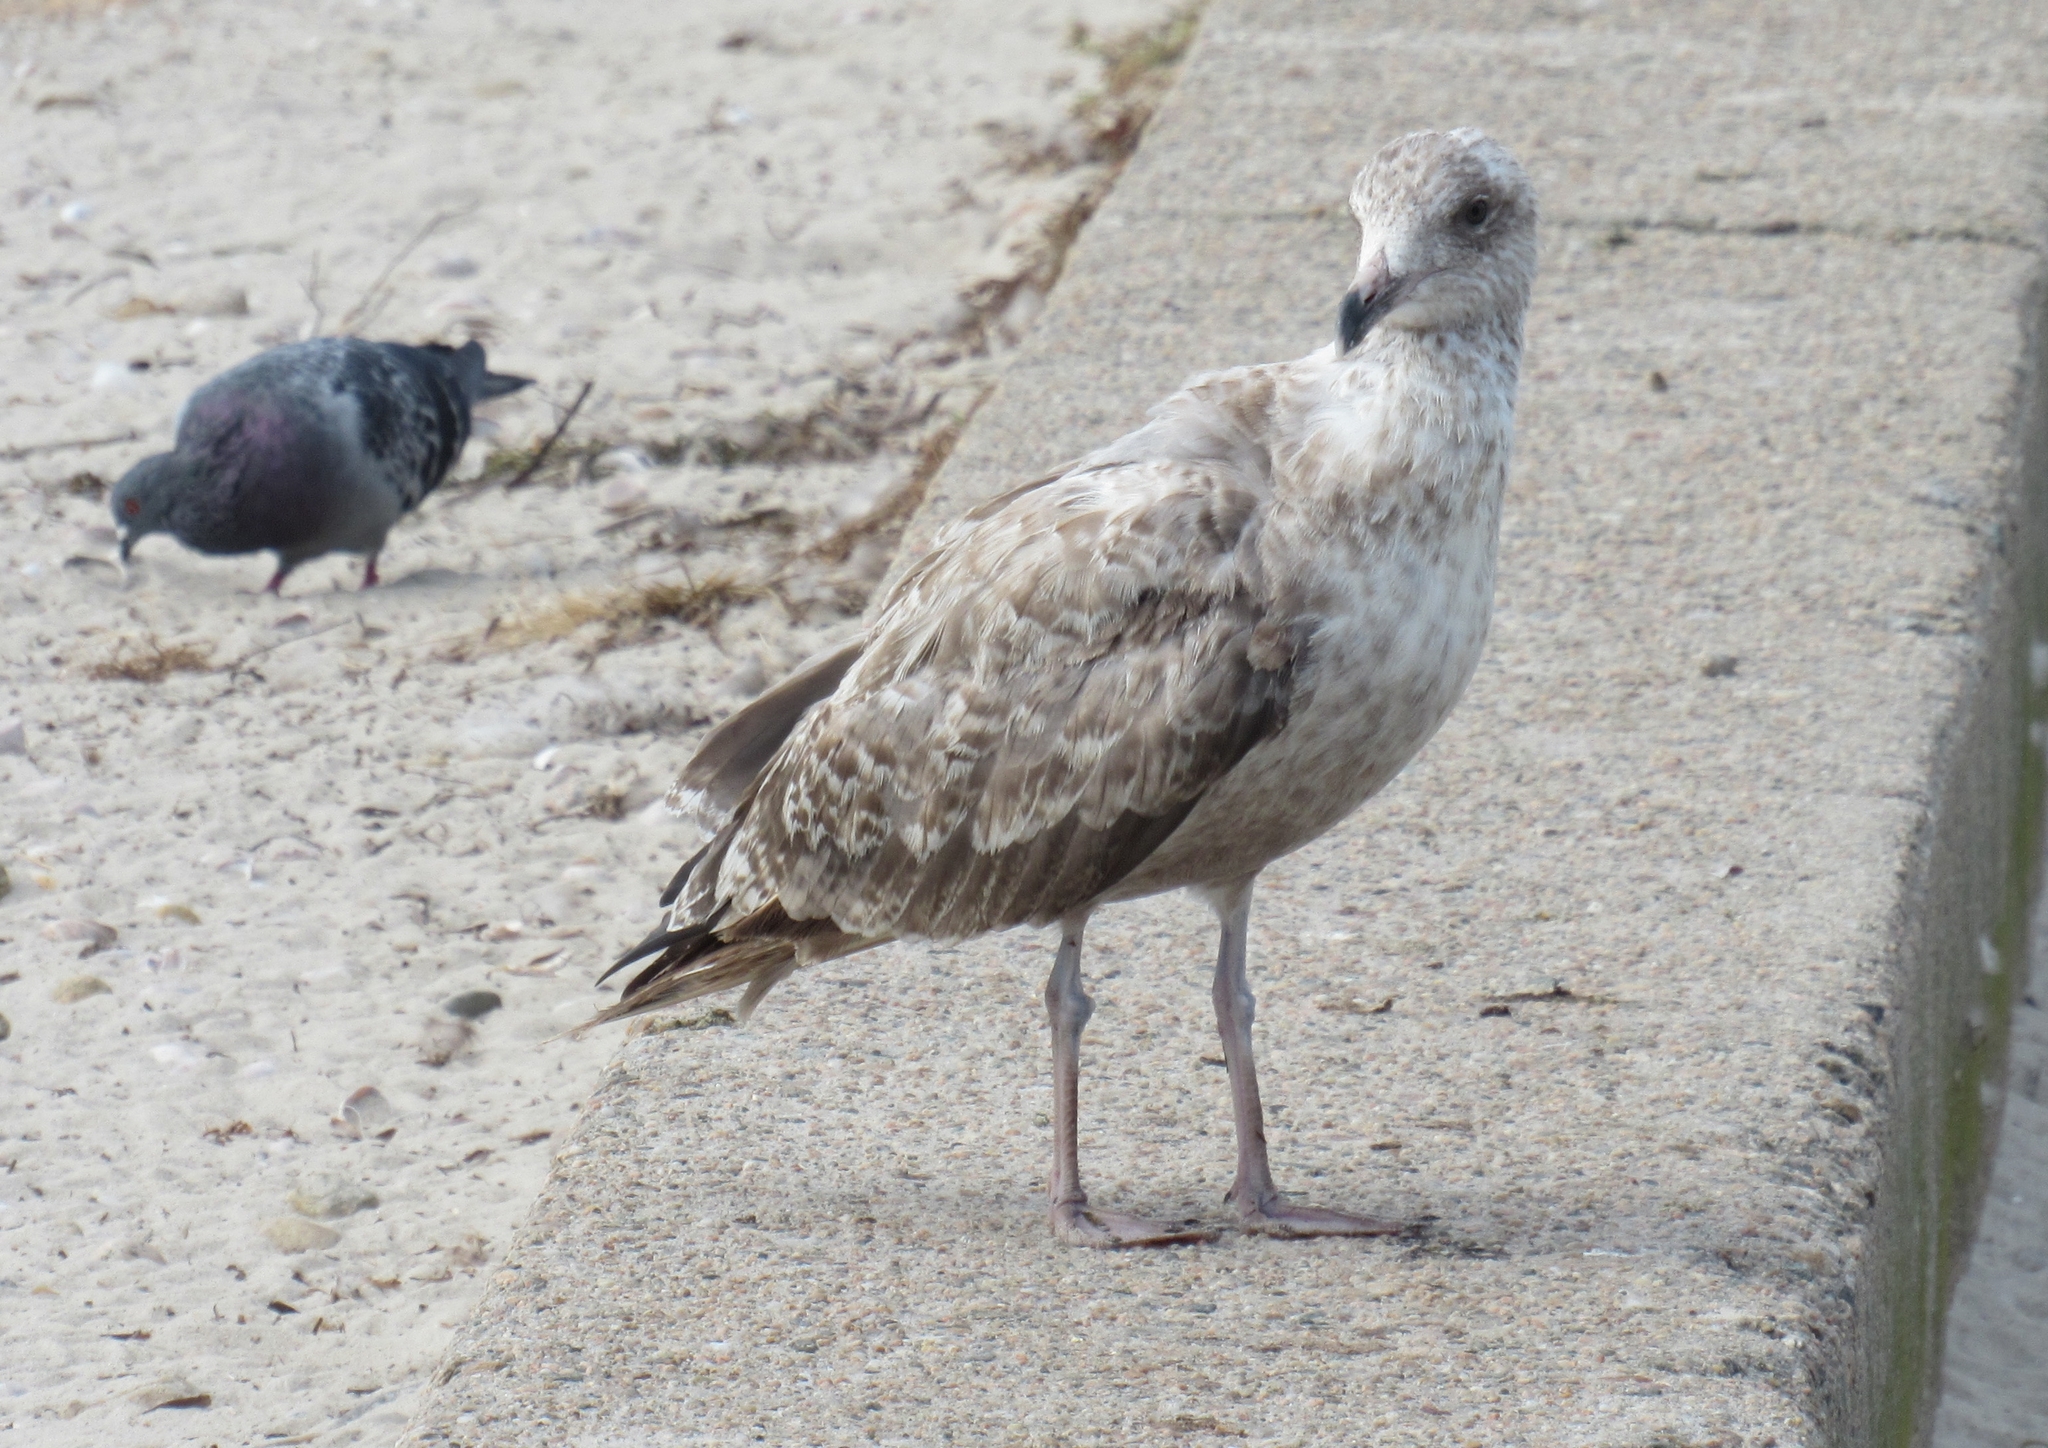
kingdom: Animalia
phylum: Chordata
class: Aves
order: Charadriiformes
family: Laridae
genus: Larus
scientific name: Larus argentatus
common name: Herring gull
